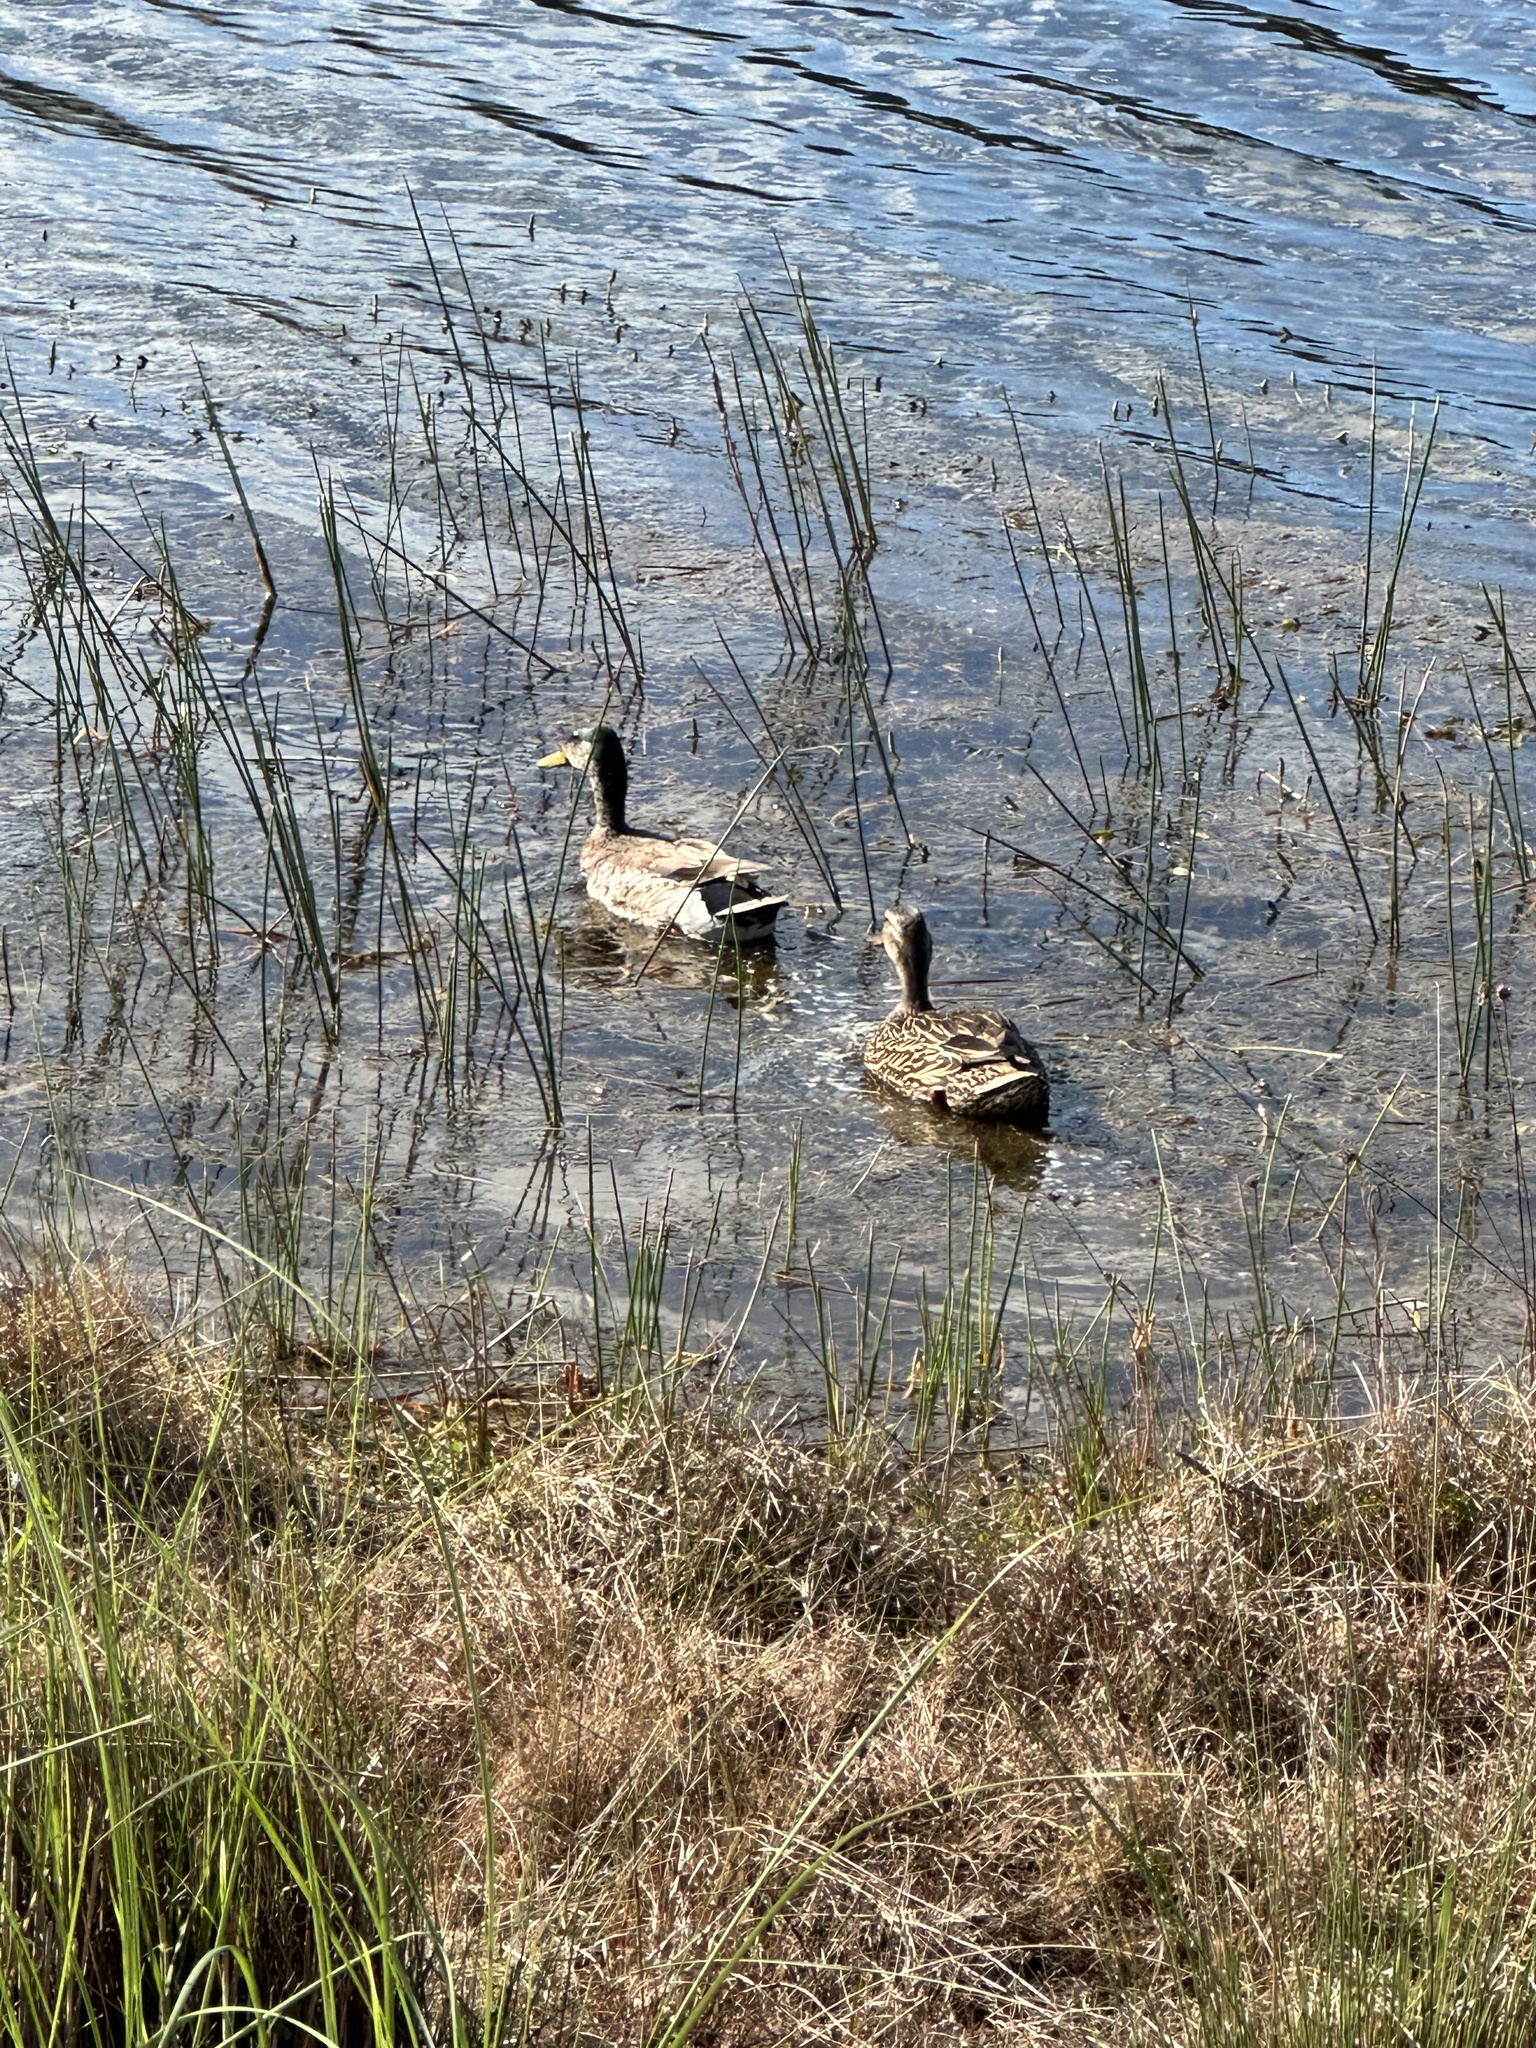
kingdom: Animalia
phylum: Chordata
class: Aves
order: Anseriformes
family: Anatidae
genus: Anas
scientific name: Anas platyrhynchos
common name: Mallard
